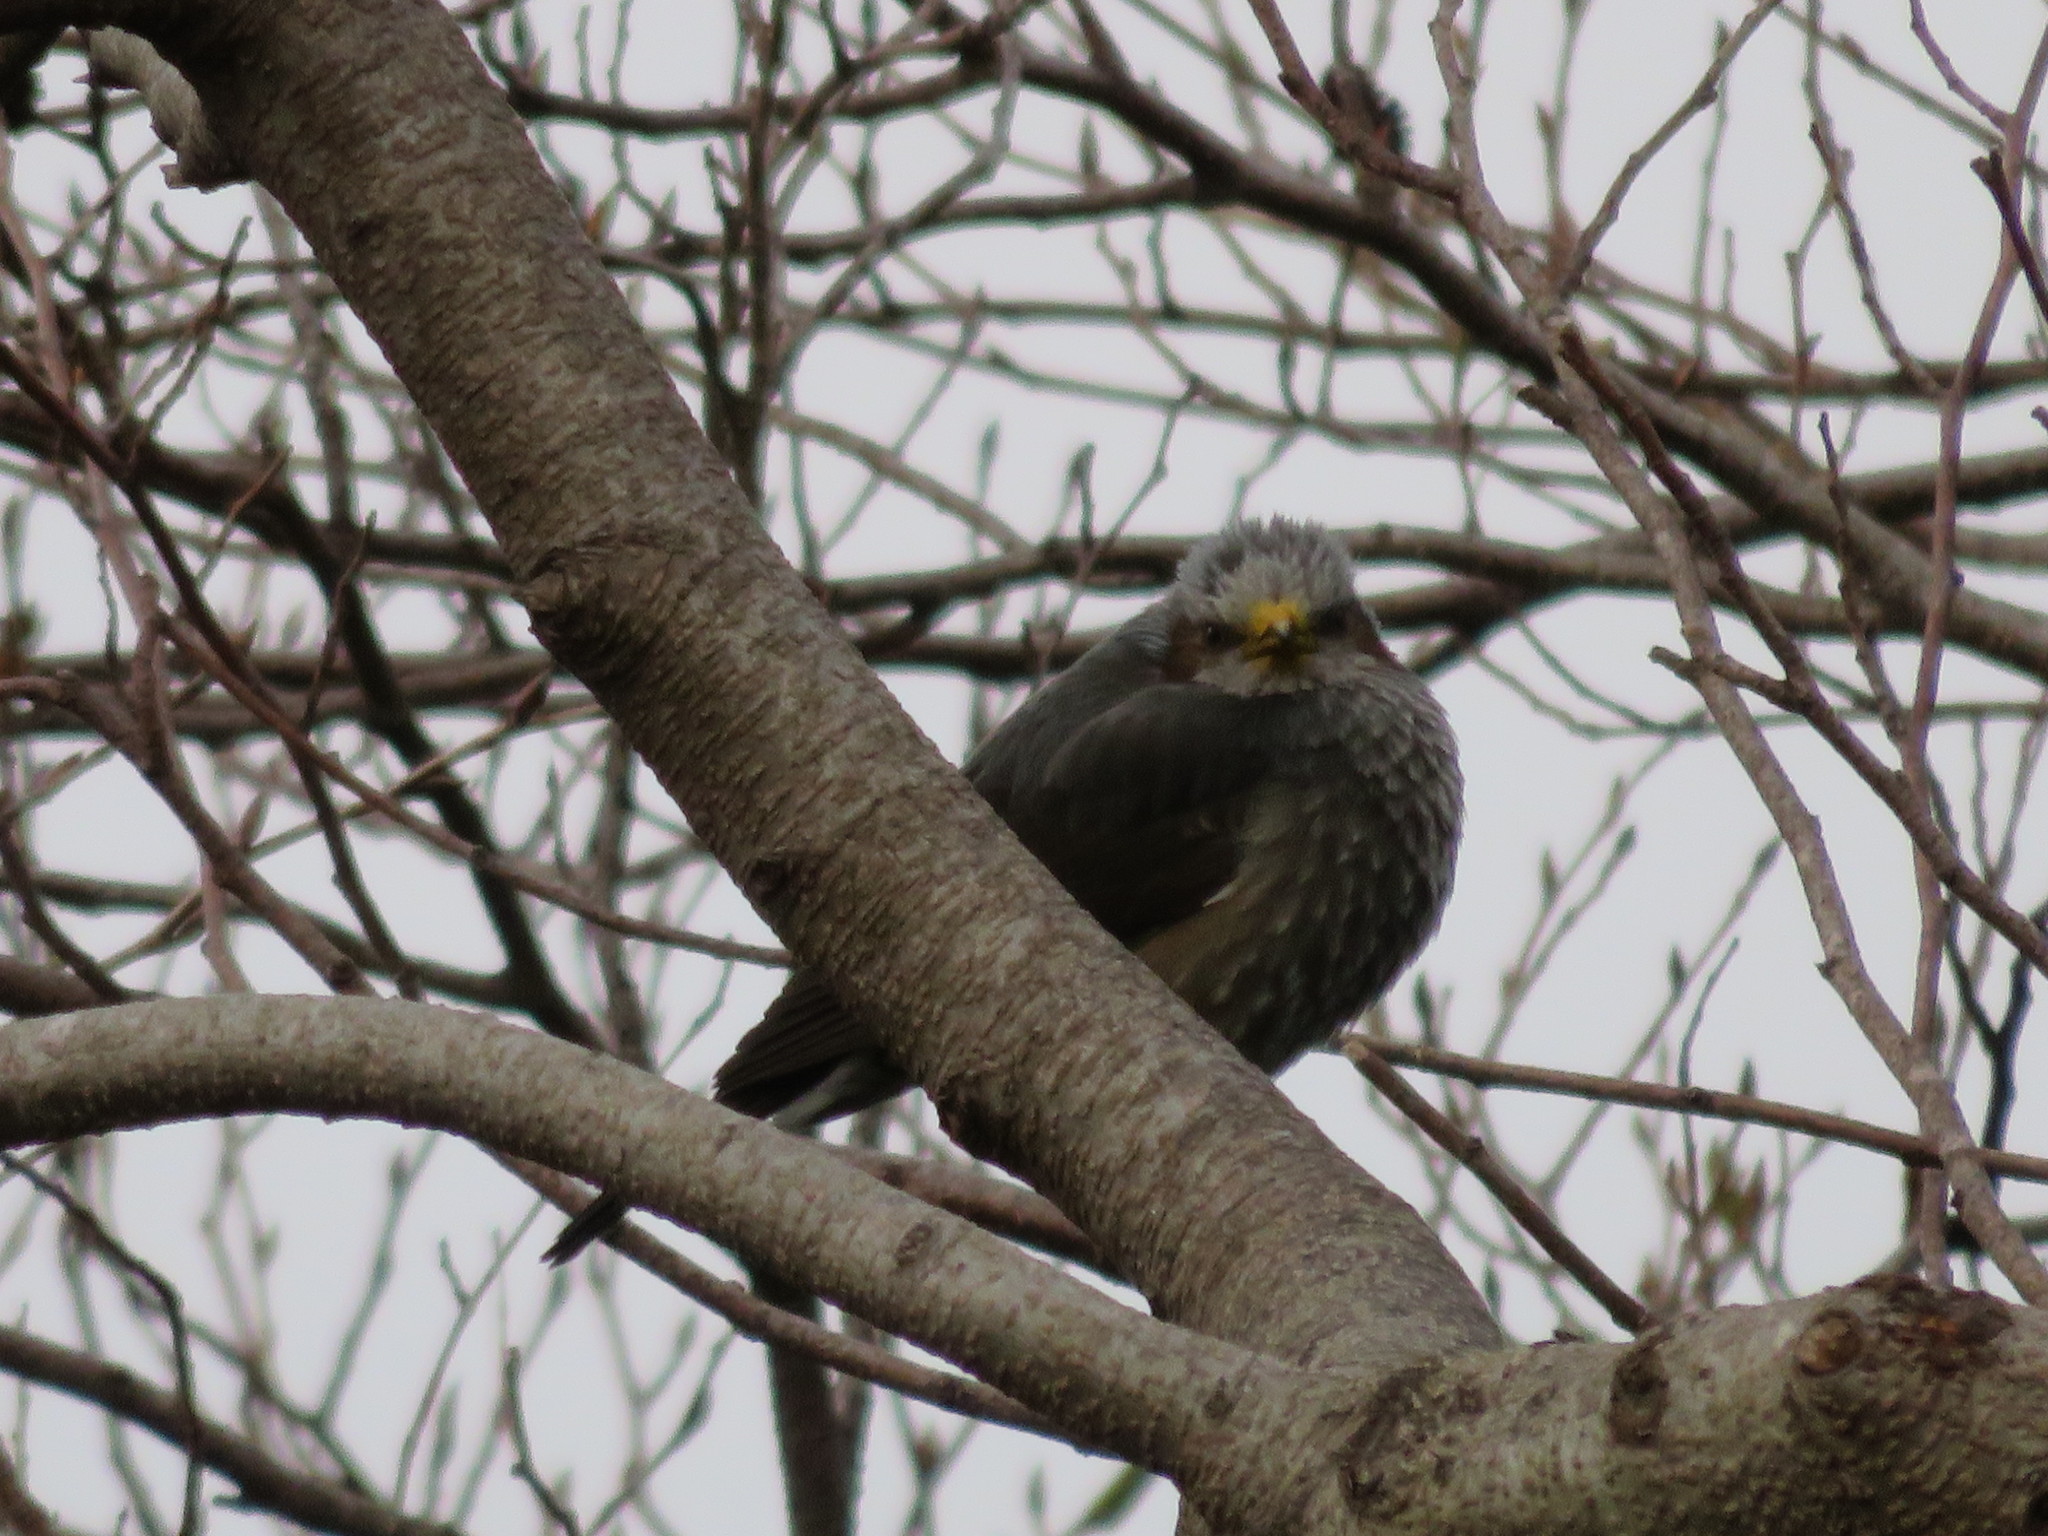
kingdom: Animalia
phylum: Chordata
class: Aves
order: Passeriformes
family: Pycnonotidae
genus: Hypsipetes
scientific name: Hypsipetes amaurotis
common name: Brown-eared bulbul
